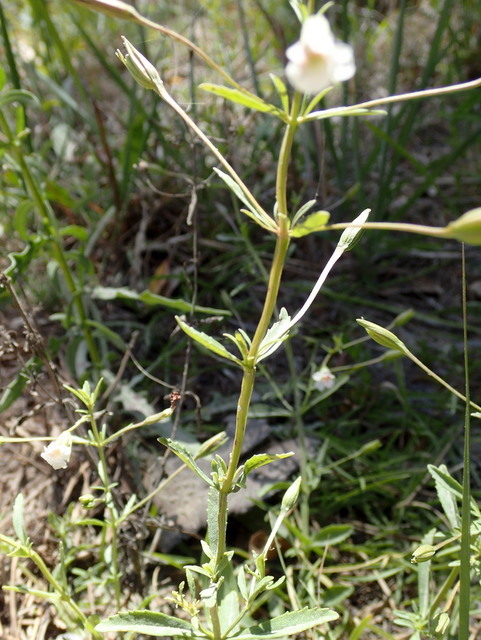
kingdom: Plantae
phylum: Tracheophyta
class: Magnoliopsida
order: Lamiales
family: Plantaginaceae
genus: Mecardonia
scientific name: Mecardonia acuminata
